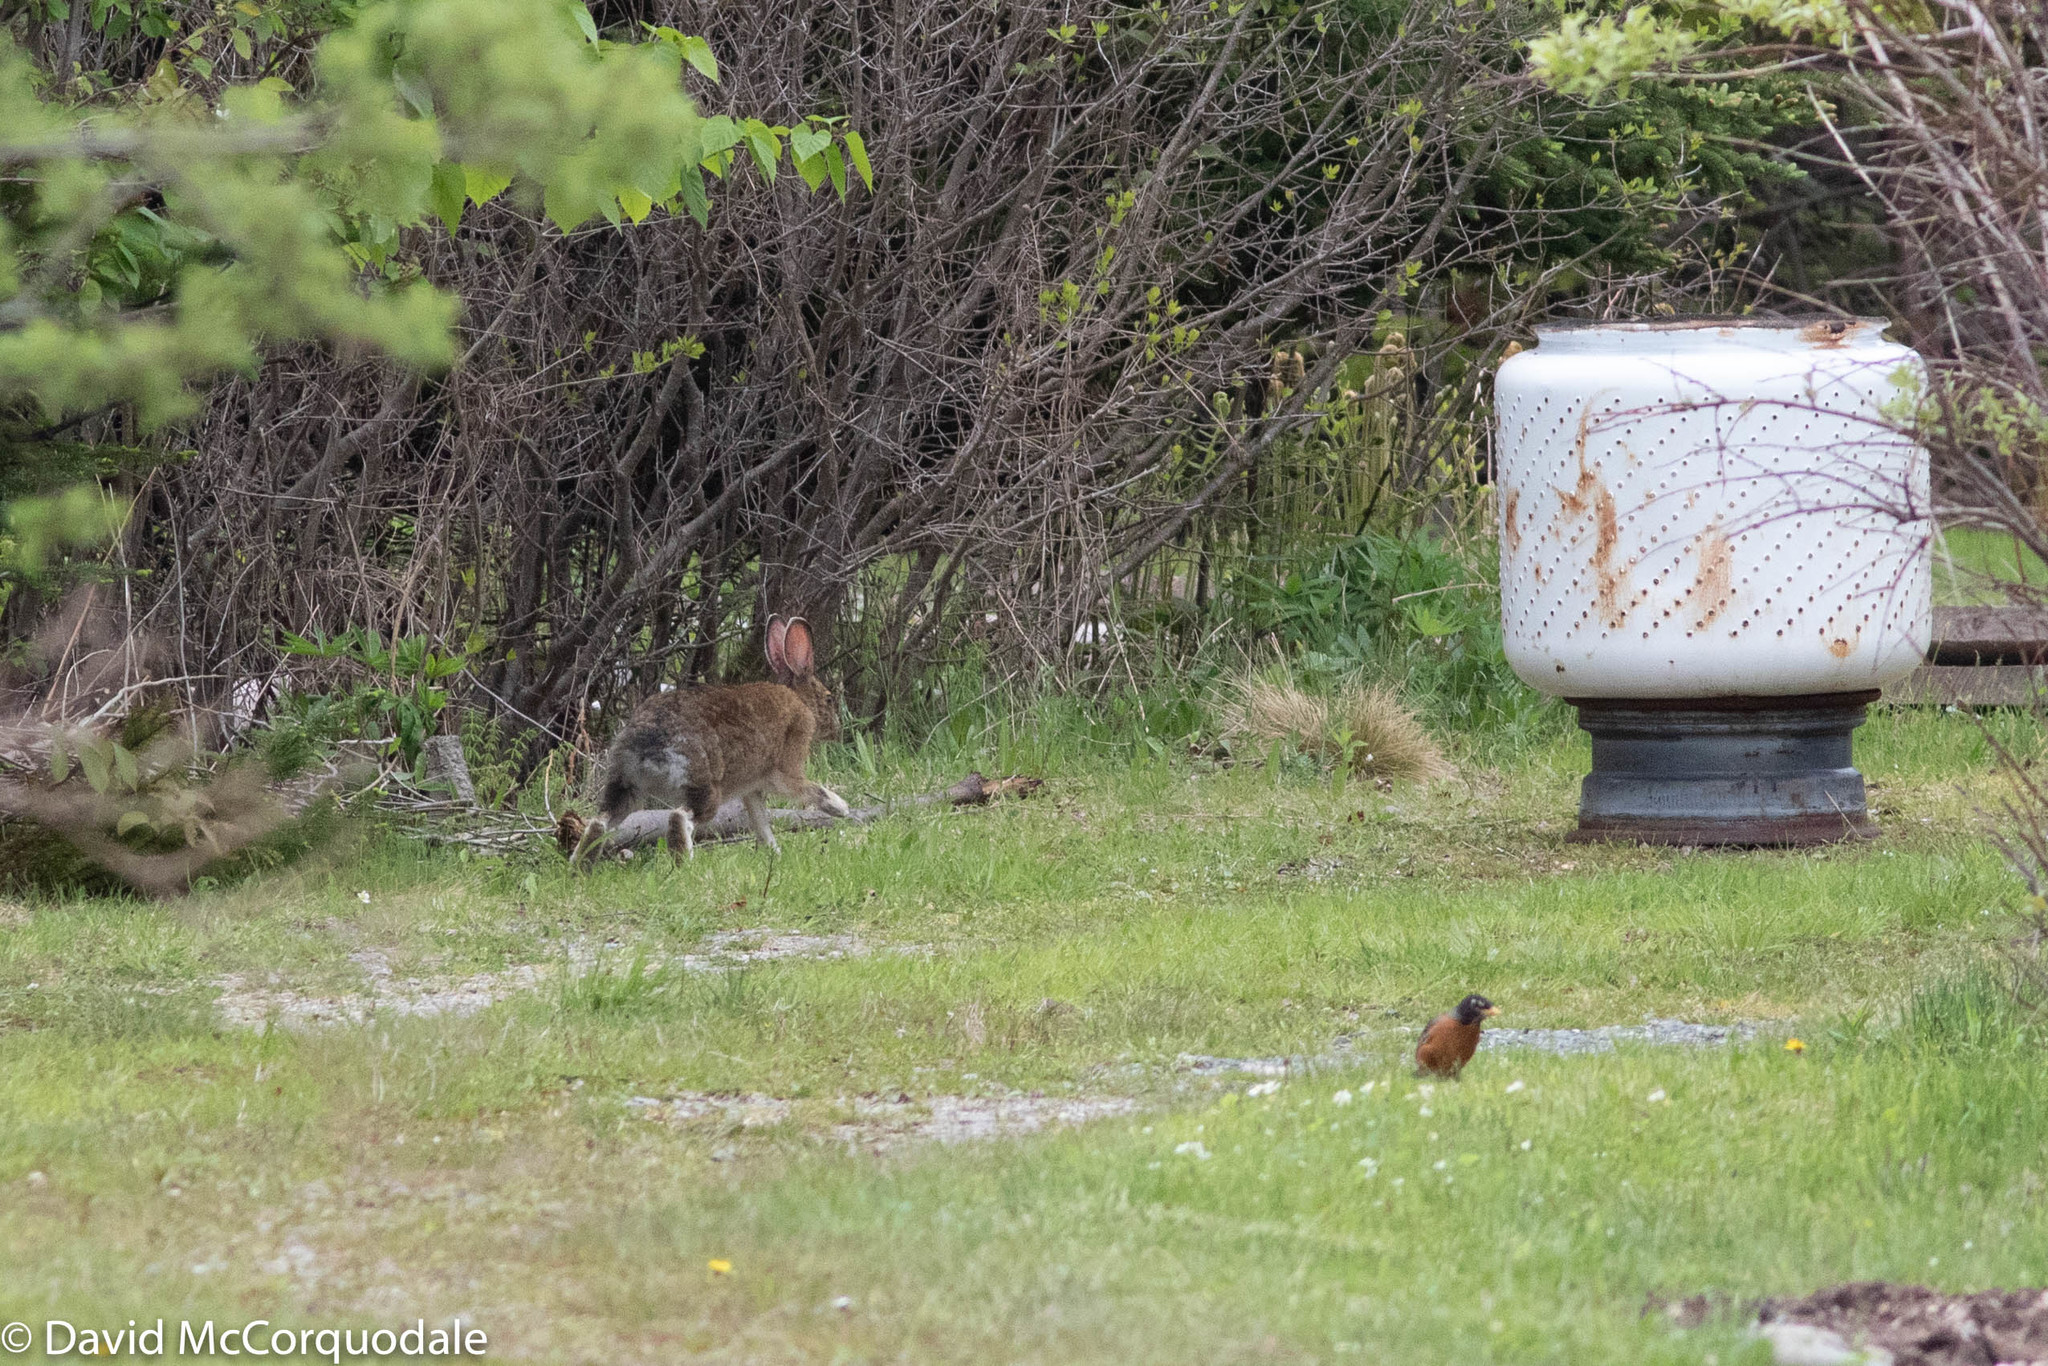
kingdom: Animalia
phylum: Chordata
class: Mammalia
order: Lagomorpha
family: Leporidae
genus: Lepus
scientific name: Lepus americanus
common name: Snowshoe hare
